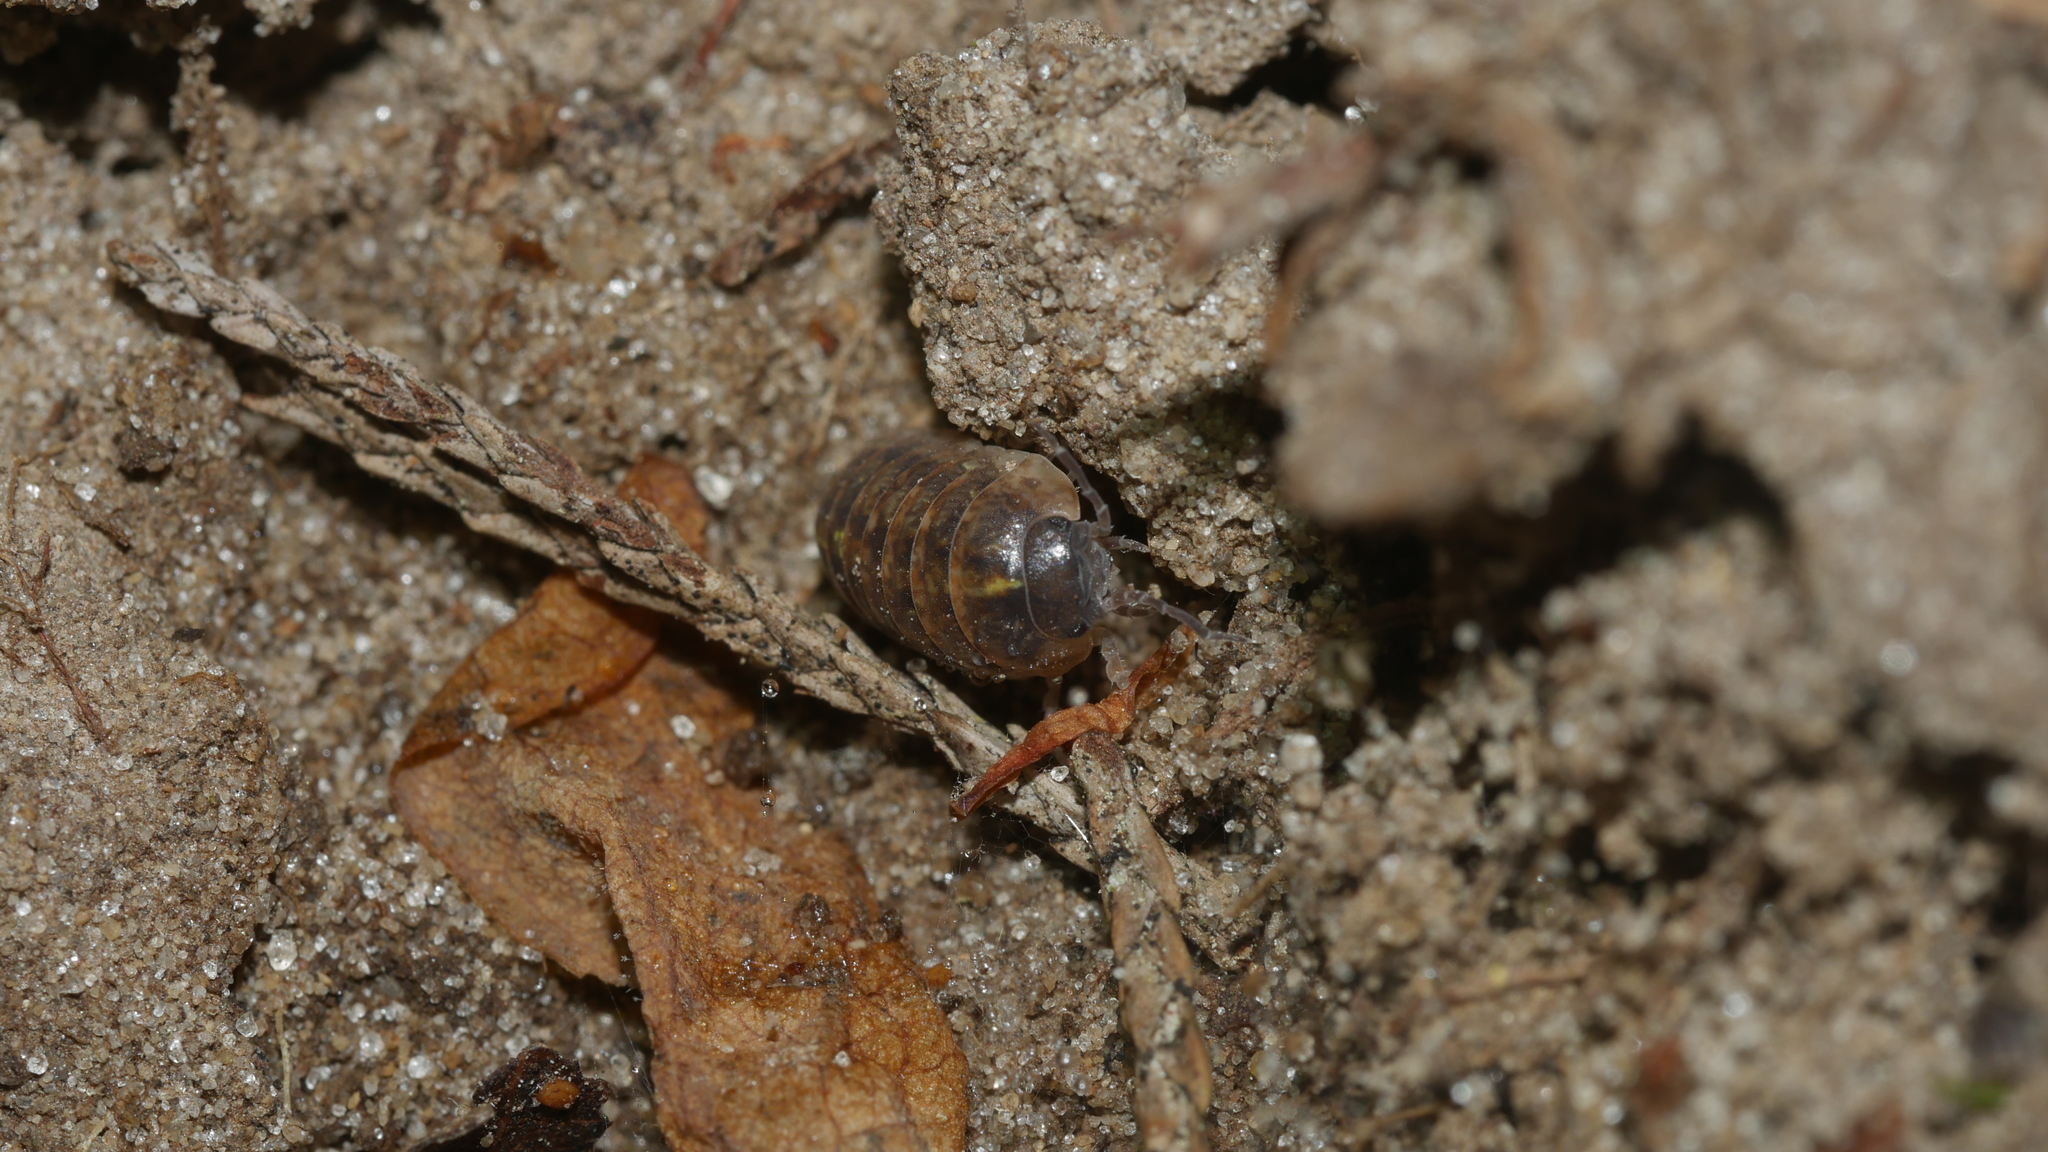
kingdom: Animalia
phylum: Arthropoda
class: Malacostraca
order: Isopoda
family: Armadillidiidae
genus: Armadillidium
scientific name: Armadillidium vulgare
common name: Common pill woodlouse
